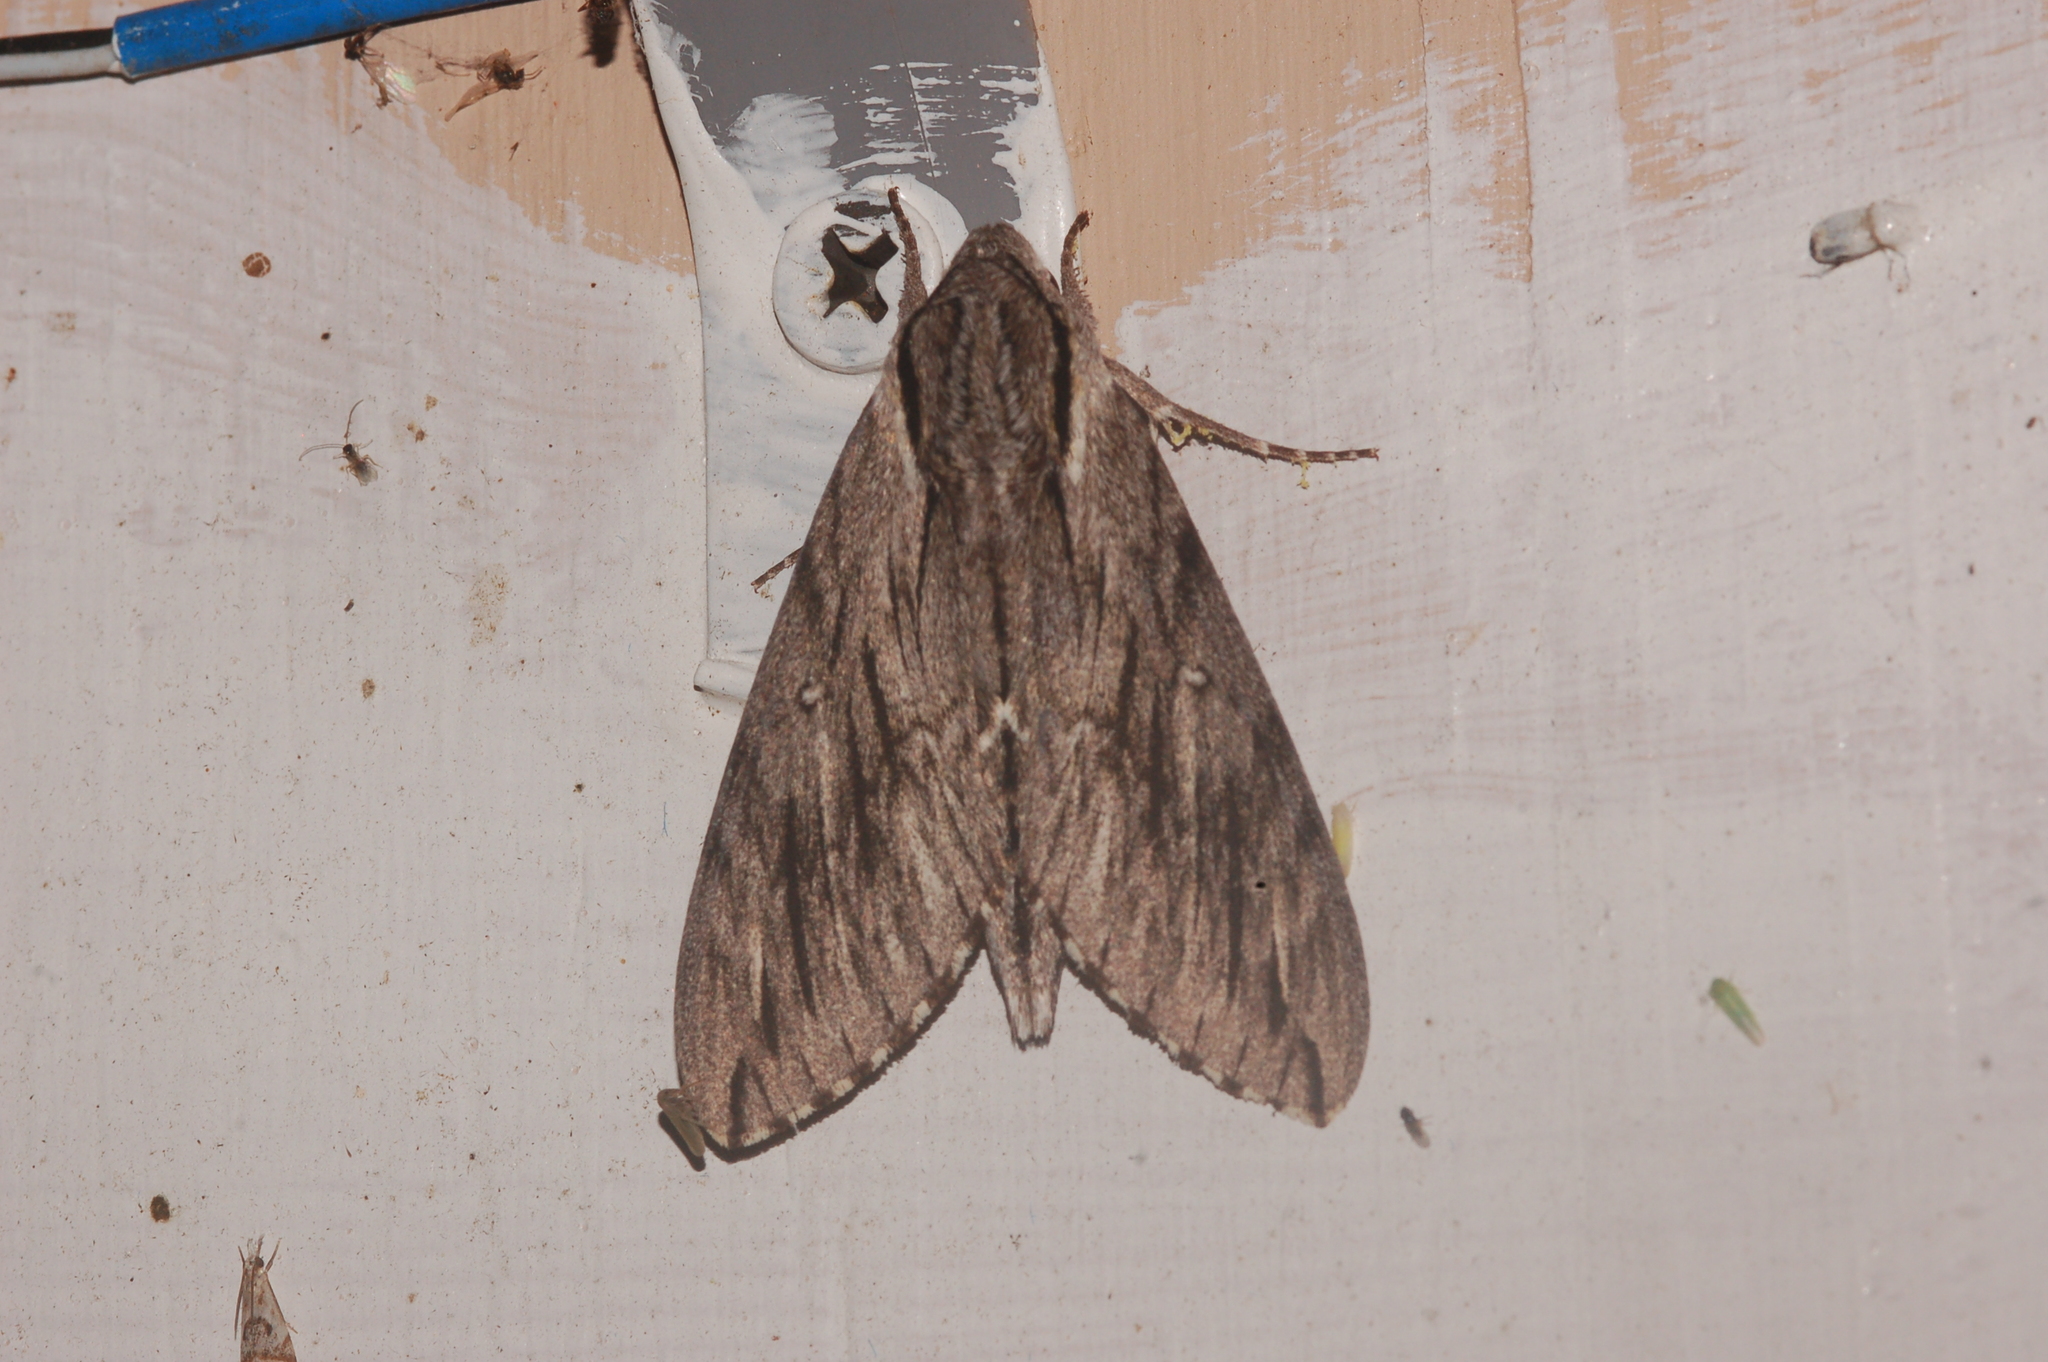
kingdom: Animalia
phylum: Arthropoda
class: Insecta
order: Lepidoptera
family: Sphingidae
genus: Paratrea
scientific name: Paratrea plebeja
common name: Plebian sphinx
